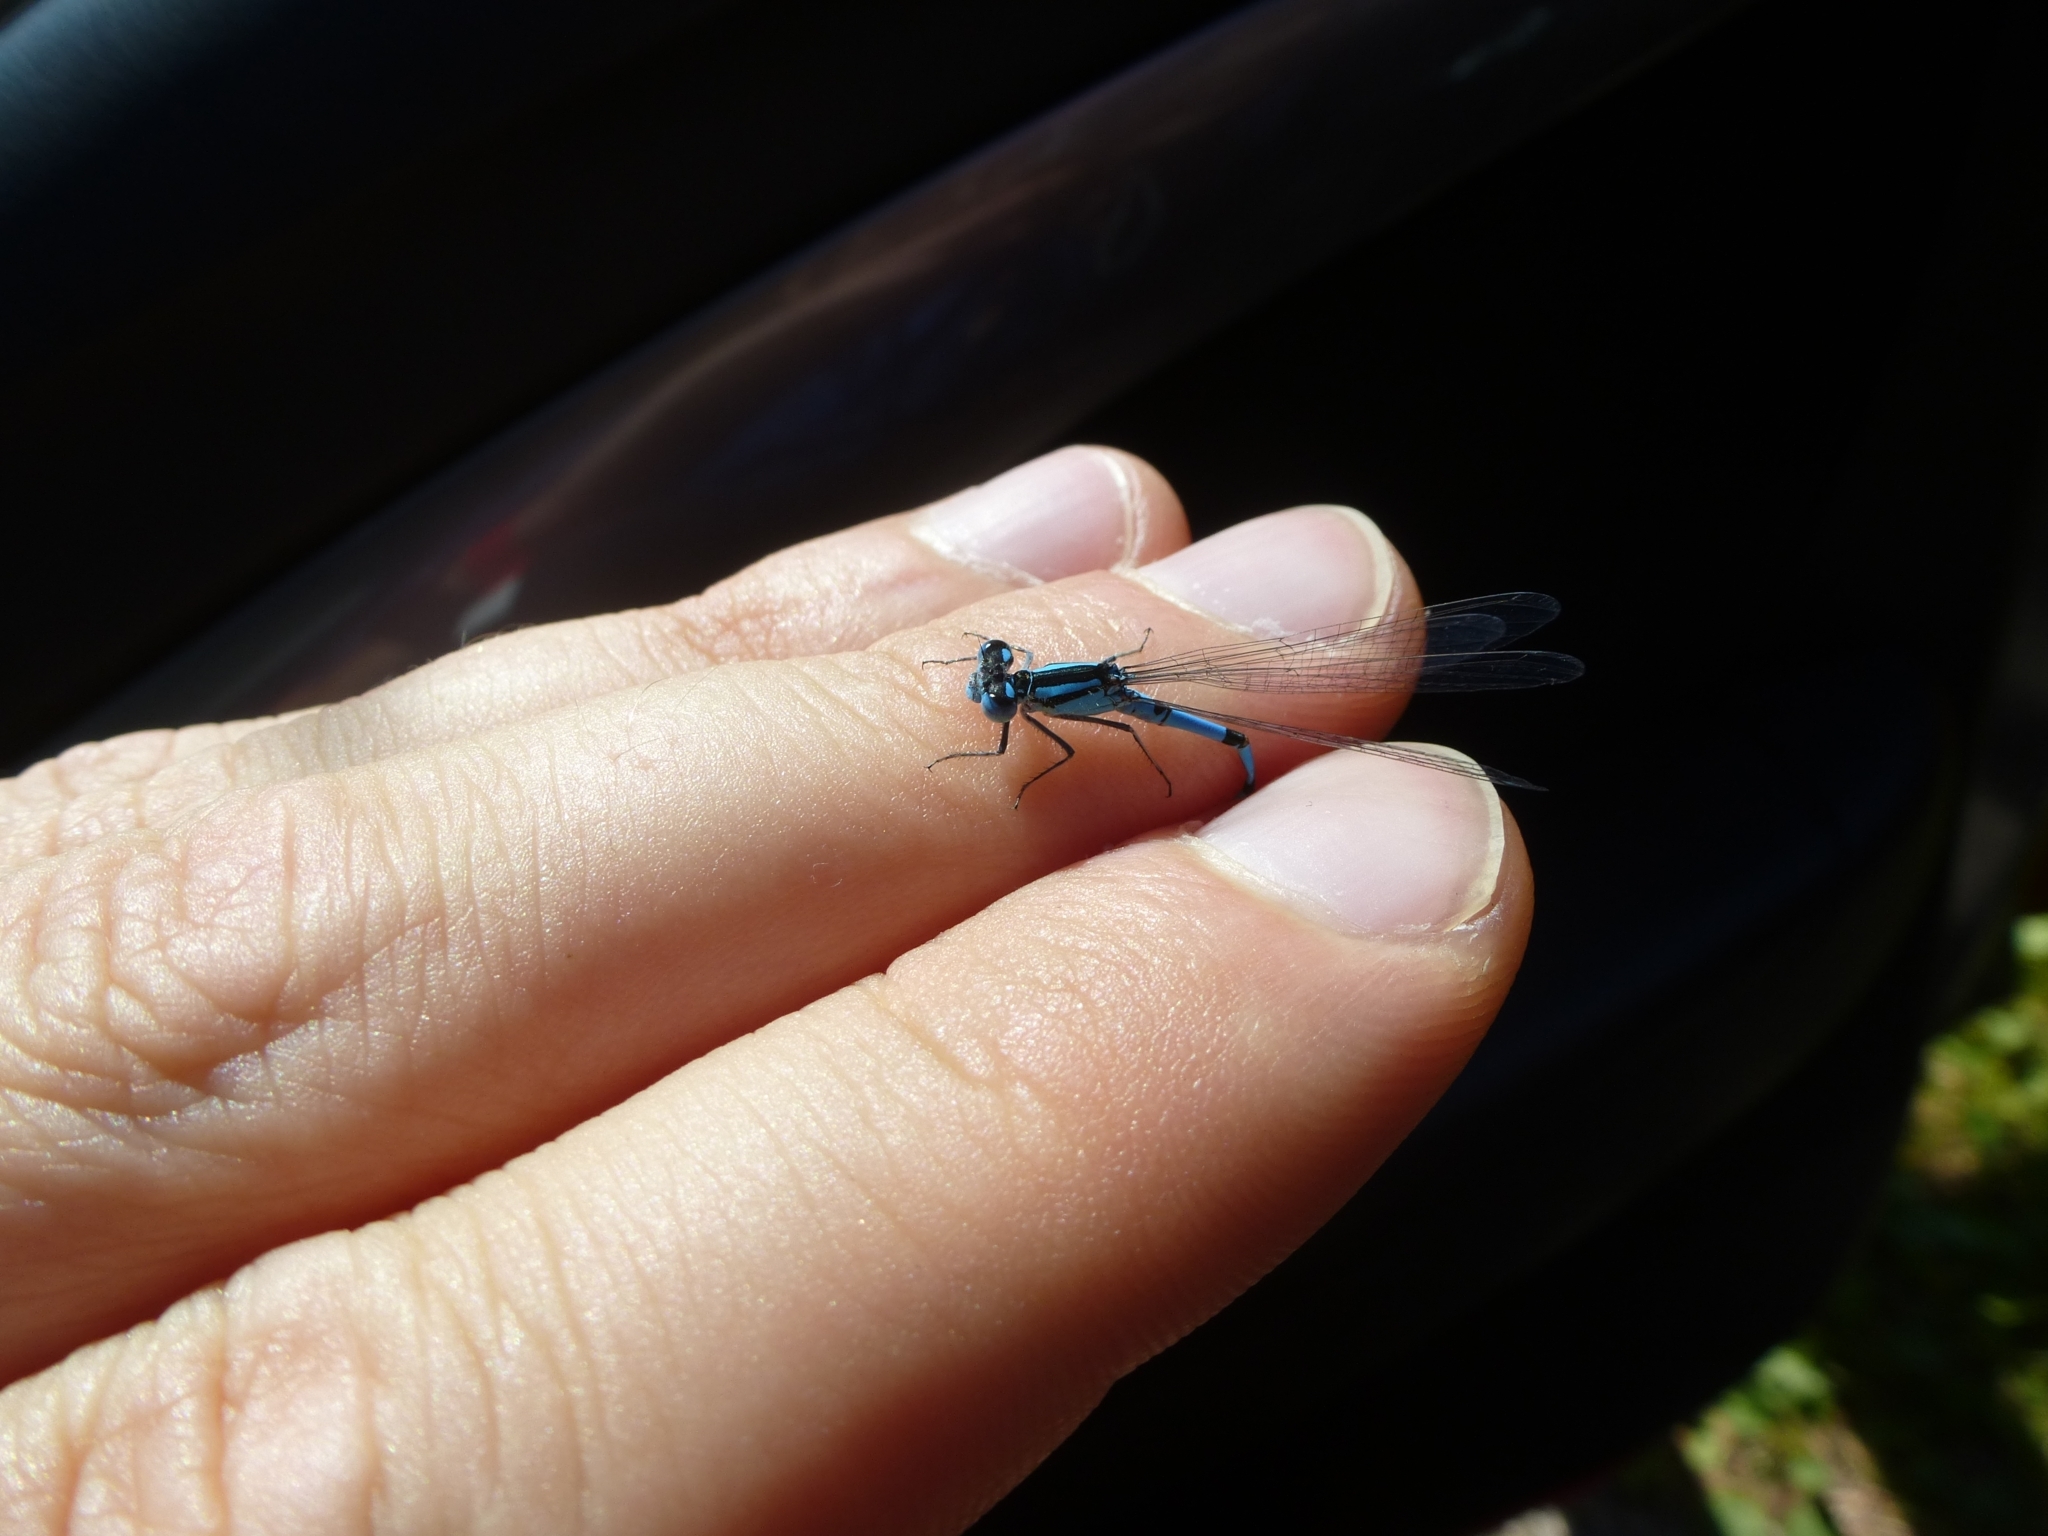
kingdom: Animalia
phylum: Arthropoda
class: Insecta
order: Odonata
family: Coenagrionidae
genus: Enallagma
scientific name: Enallagma cyathigerum
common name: Common blue damselfly
